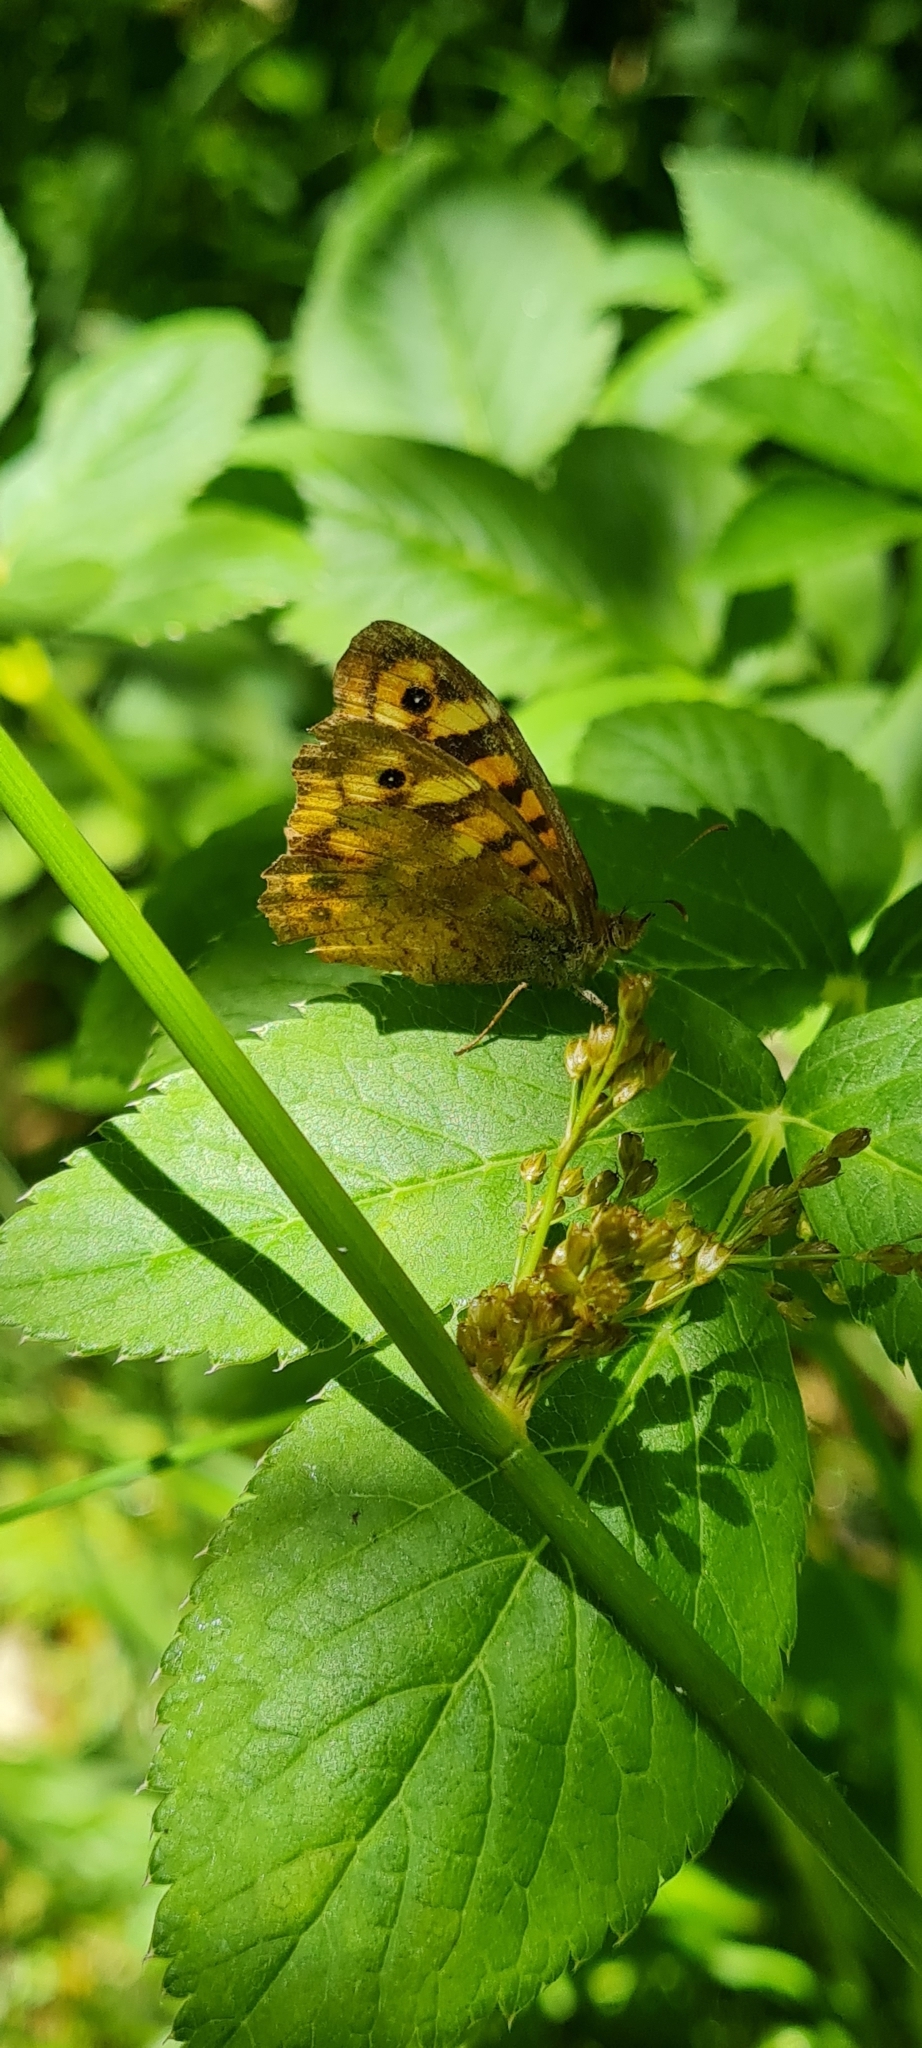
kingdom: Animalia
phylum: Arthropoda
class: Insecta
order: Lepidoptera
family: Nymphalidae
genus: Pararge
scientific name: Pararge aegeria
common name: Speckled wood
